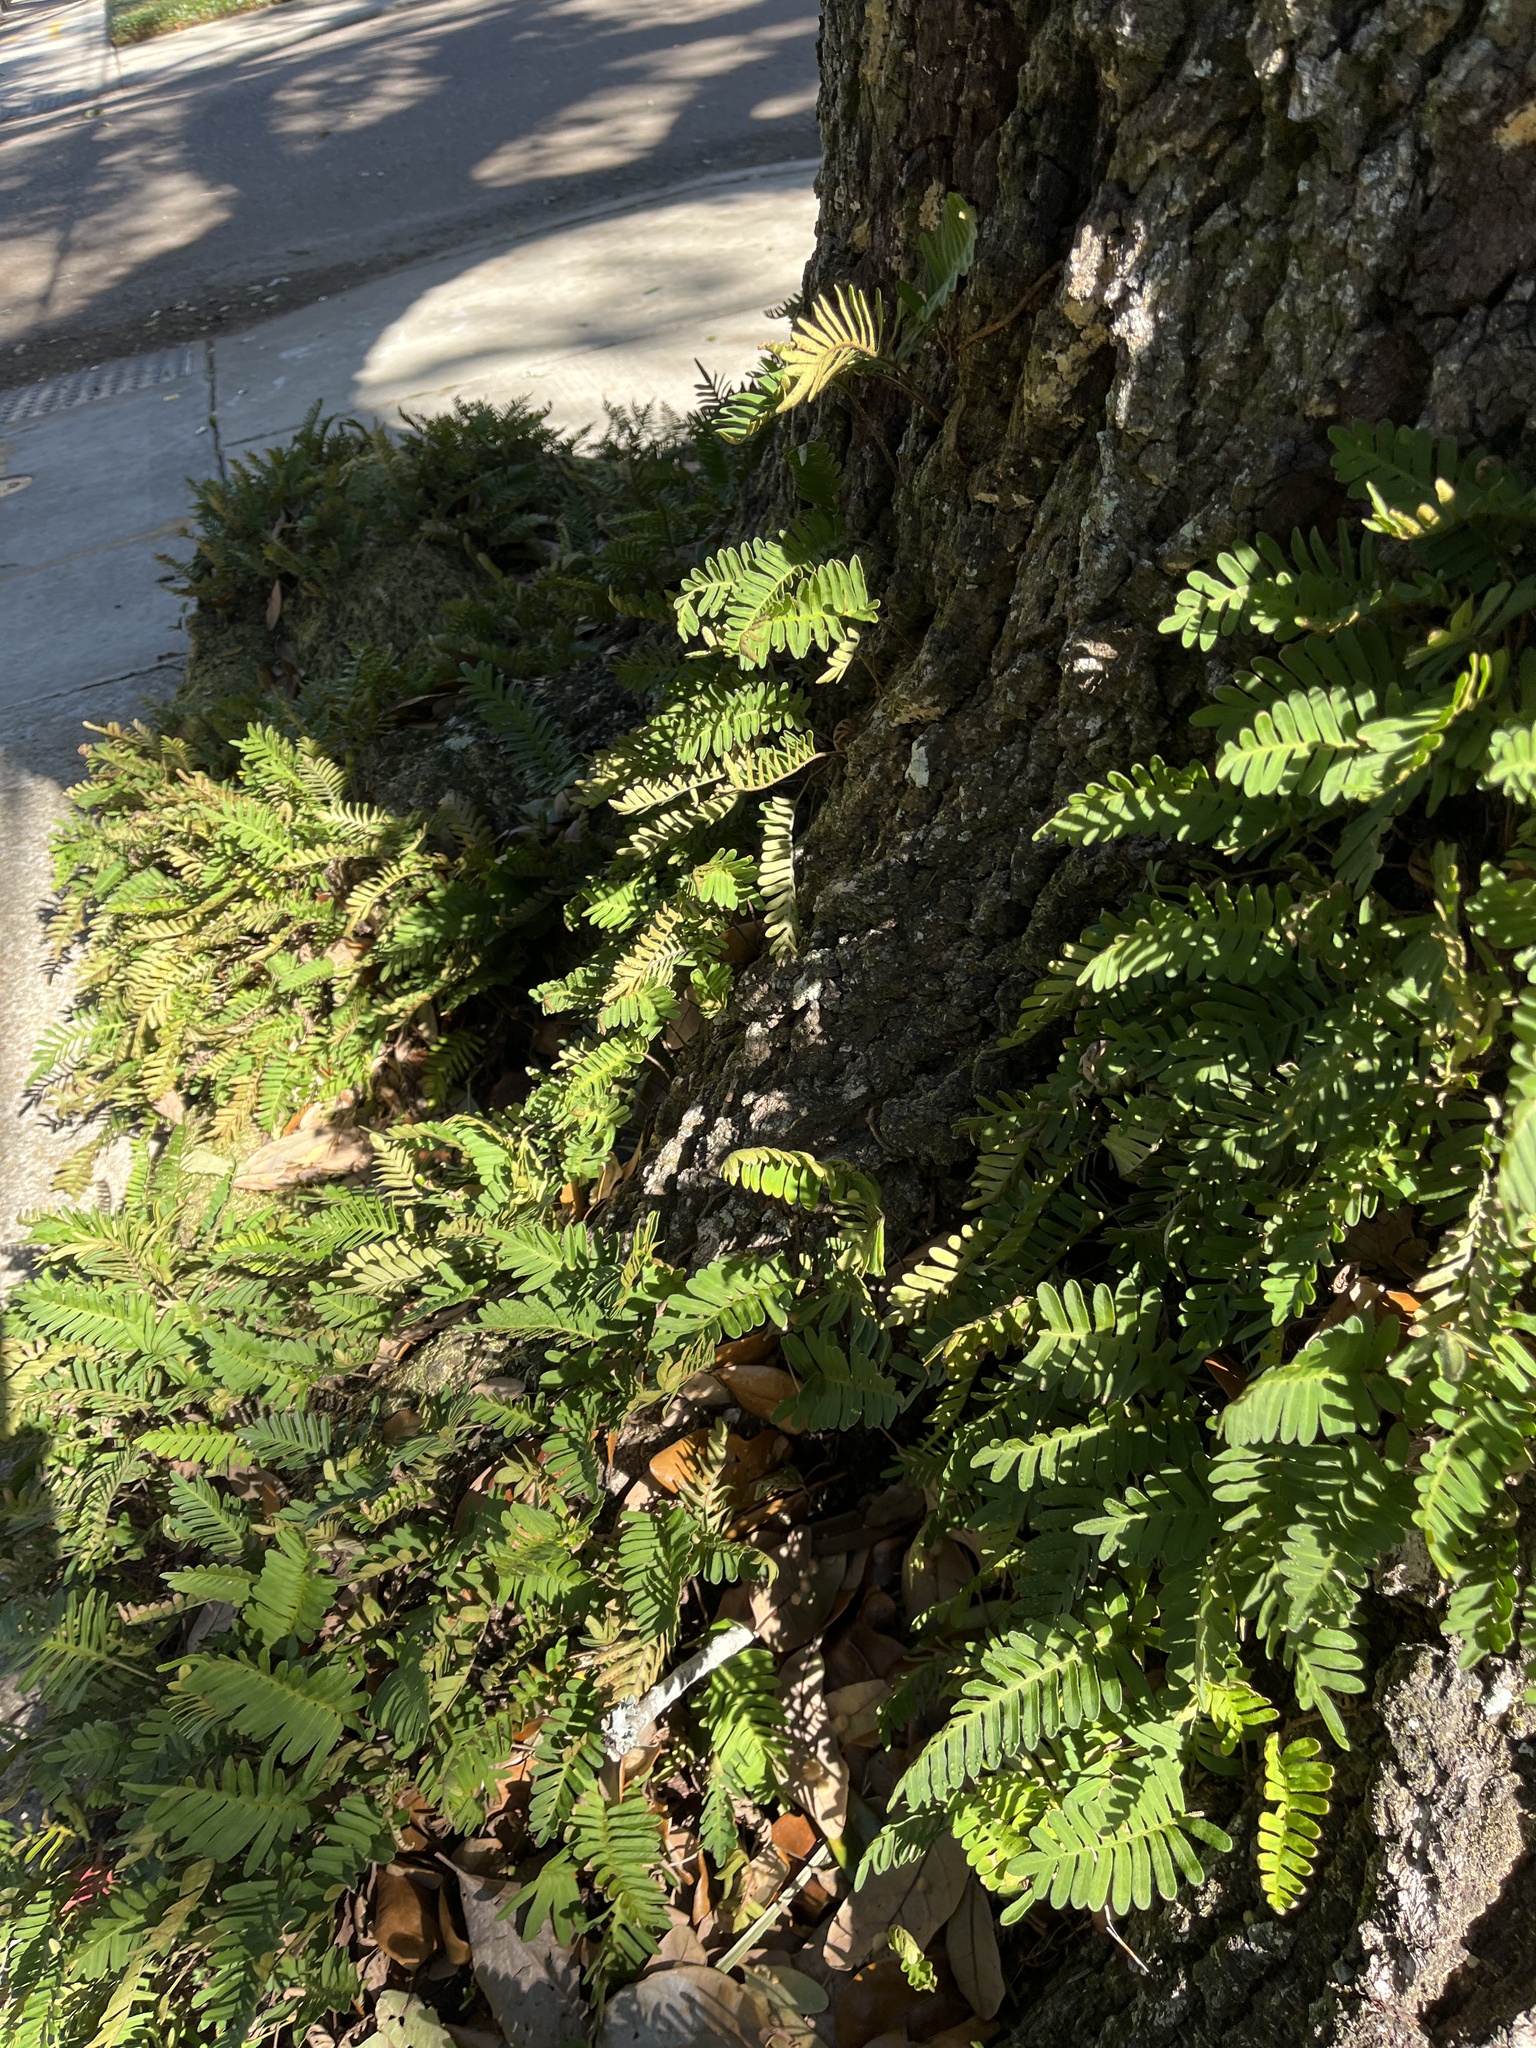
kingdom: Plantae
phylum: Tracheophyta
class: Polypodiopsida
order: Polypodiales
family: Polypodiaceae
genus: Pleopeltis
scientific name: Pleopeltis michauxiana
